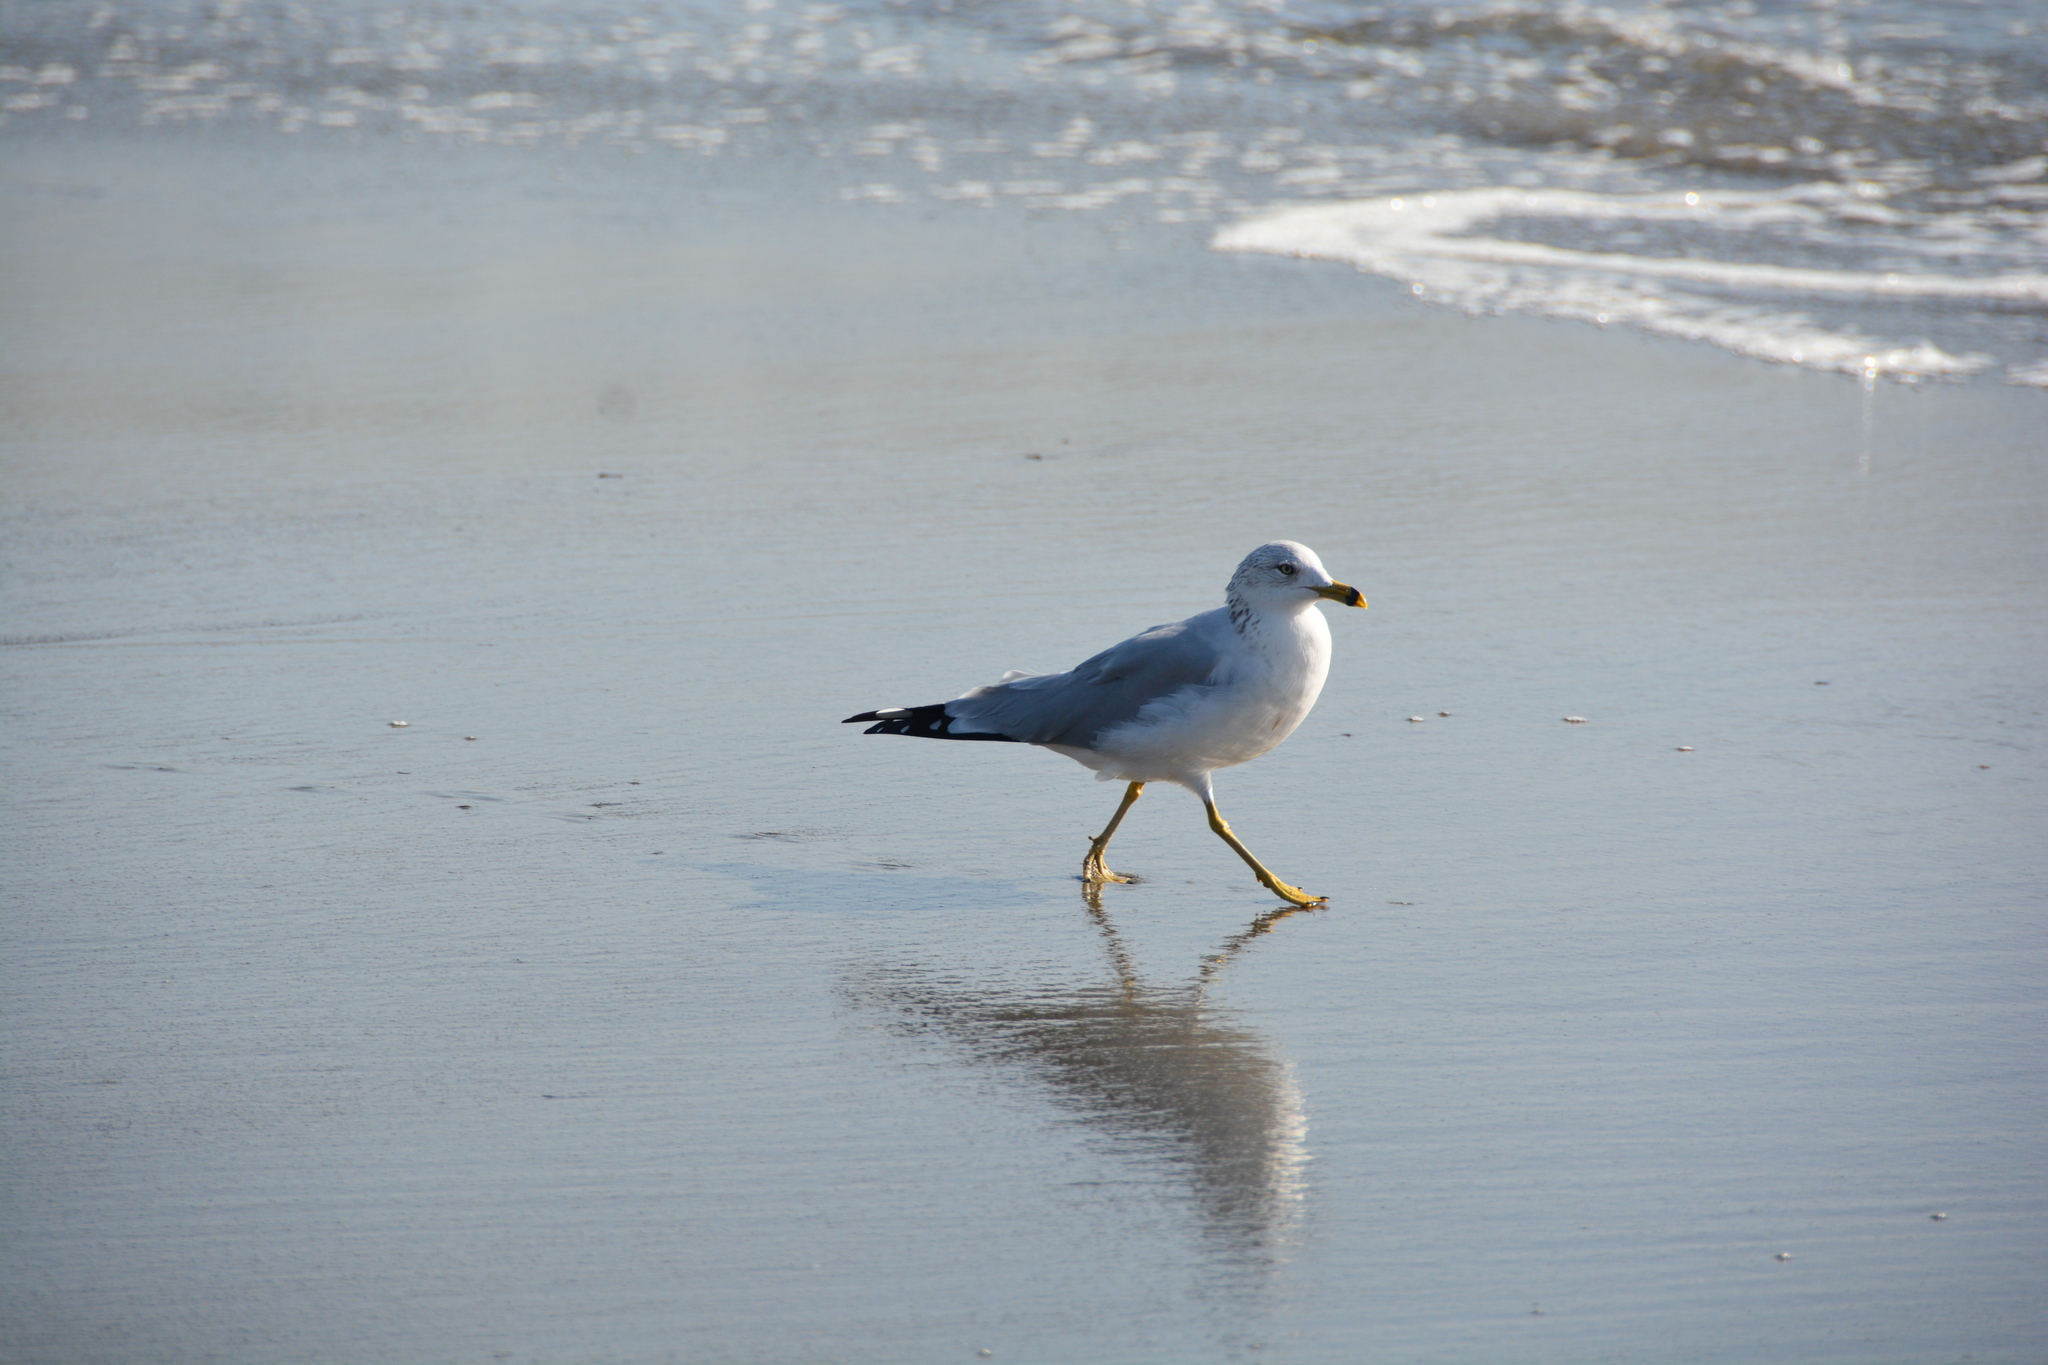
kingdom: Animalia
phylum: Chordata
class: Aves
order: Charadriiformes
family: Laridae
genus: Larus
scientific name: Larus delawarensis
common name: Ring-billed gull
